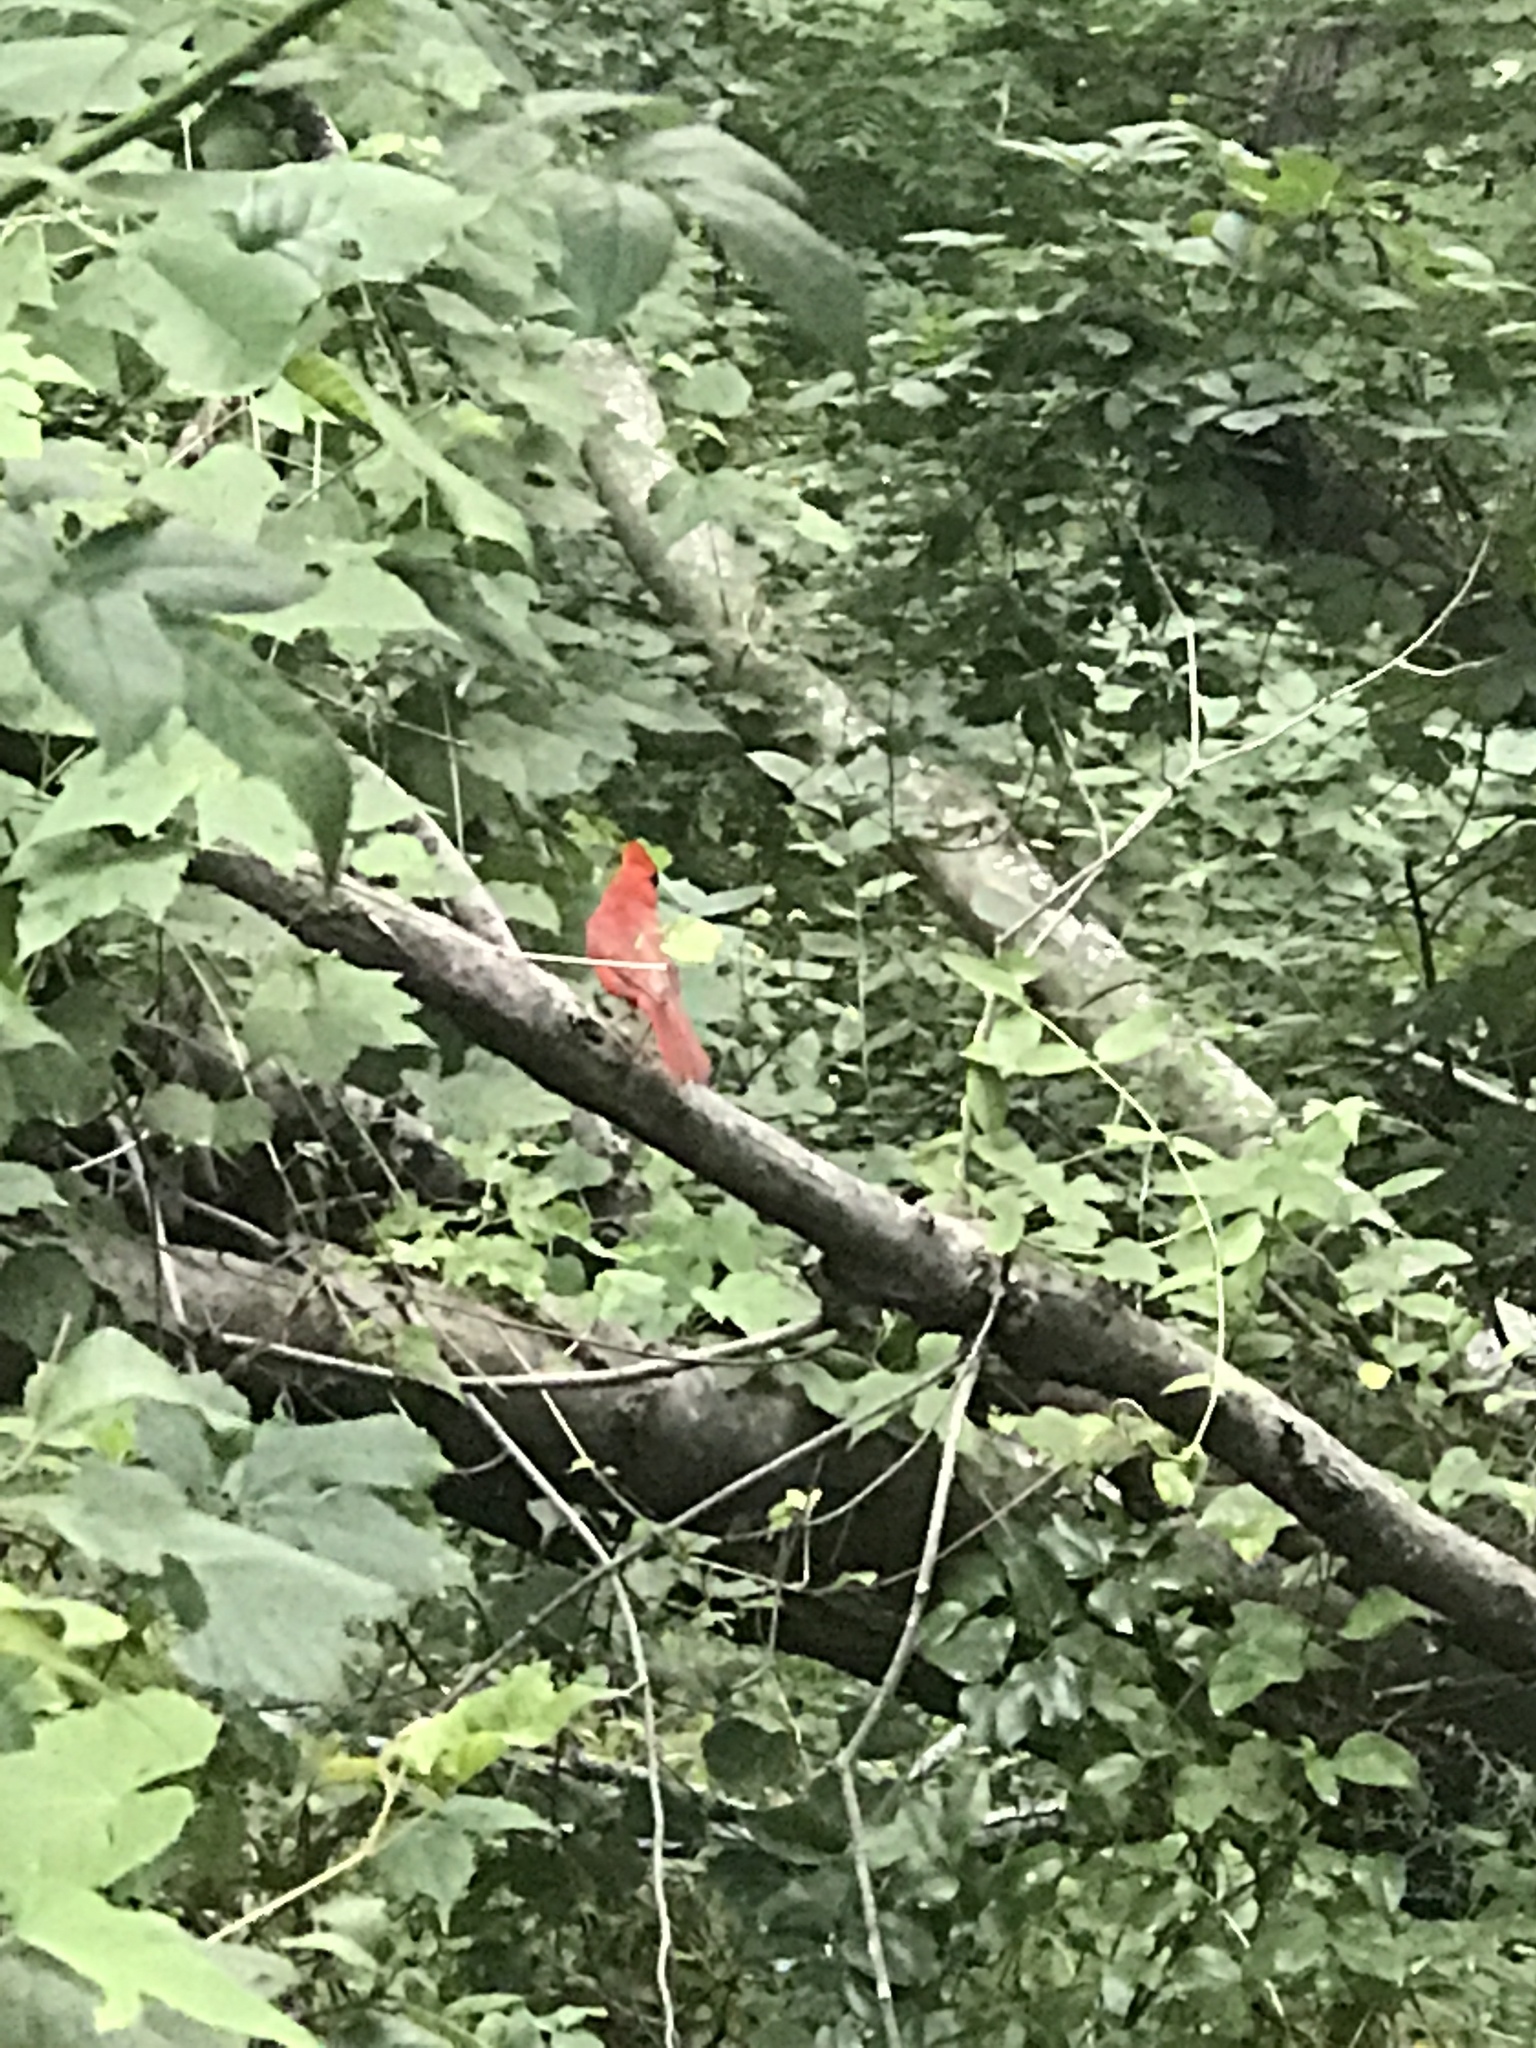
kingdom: Animalia
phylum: Chordata
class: Aves
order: Passeriformes
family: Cardinalidae
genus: Cardinalis
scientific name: Cardinalis cardinalis
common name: Northern cardinal
